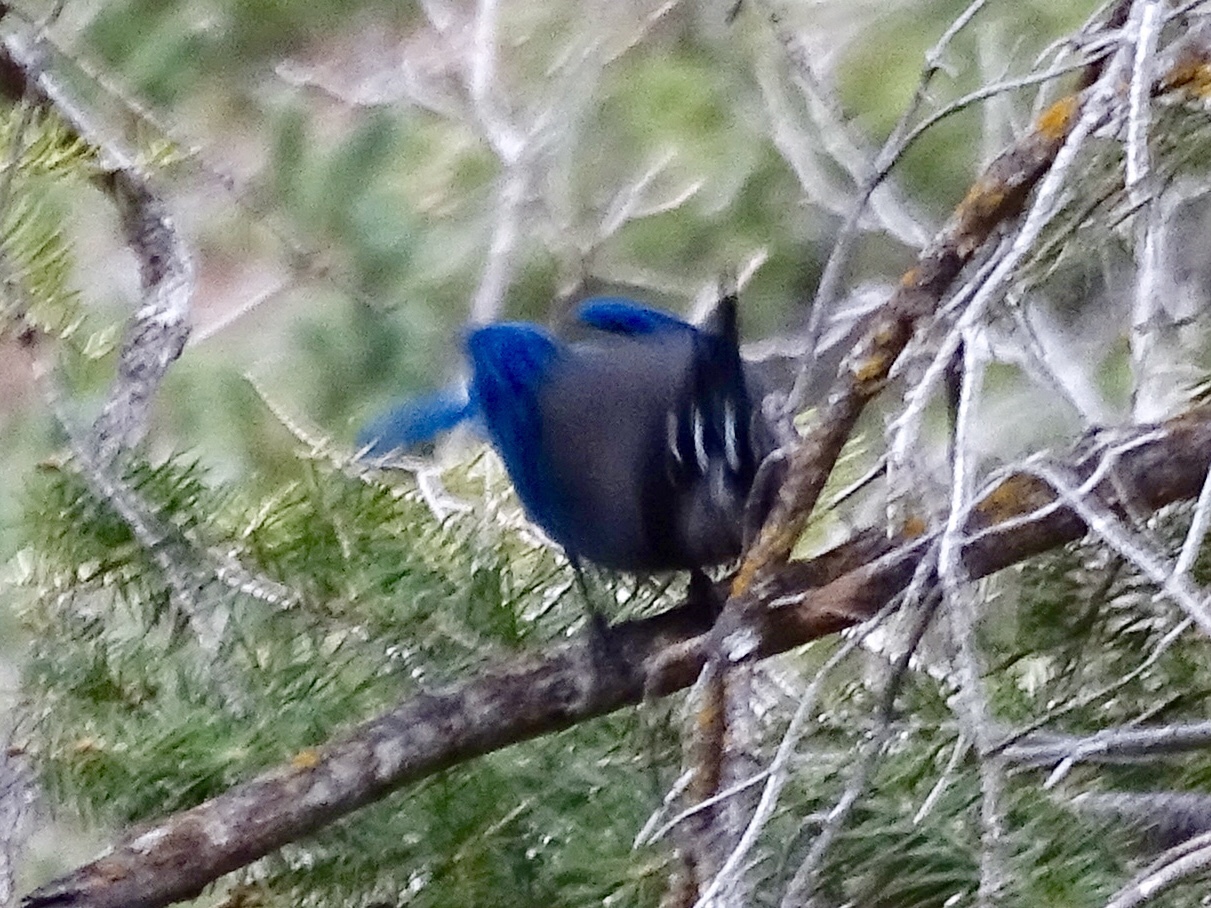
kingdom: Animalia
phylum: Chordata
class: Aves
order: Passeriformes
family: Corvidae
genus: Cyanocitta
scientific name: Cyanocitta stelleri
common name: Steller's jay
